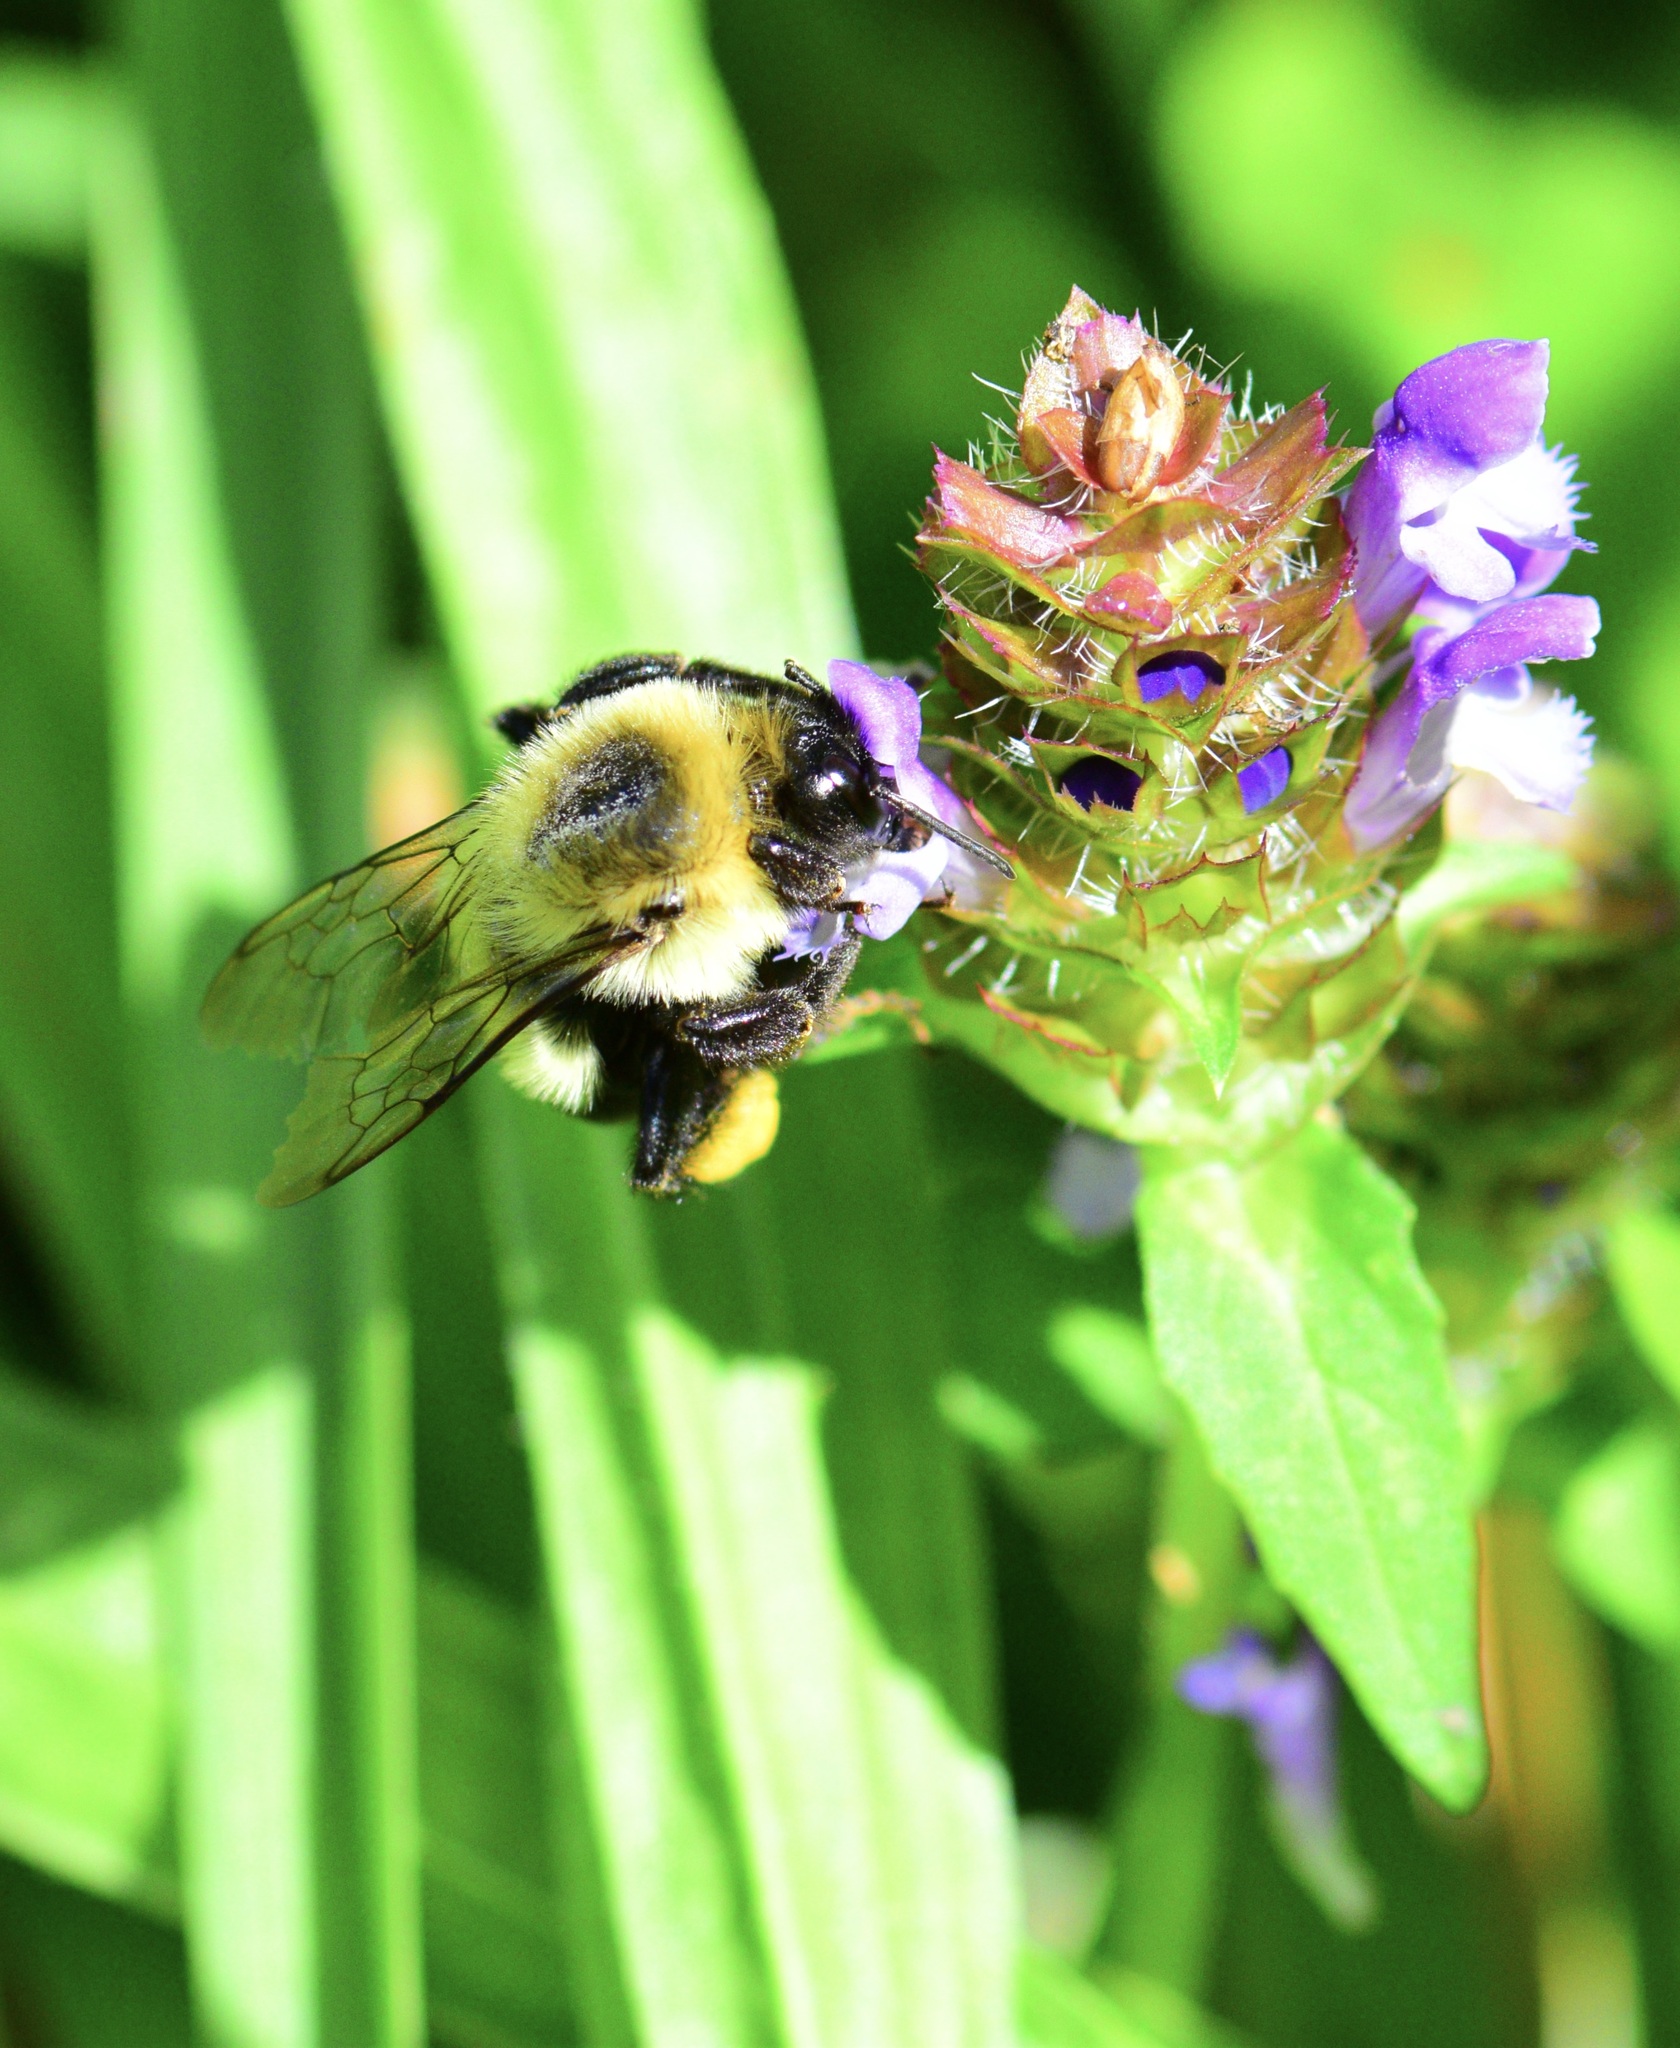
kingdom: Animalia
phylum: Arthropoda
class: Insecta
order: Hymenoptera
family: Apidae
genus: Bombus
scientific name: Bombus impatiens
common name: Common eastern bumble bee
